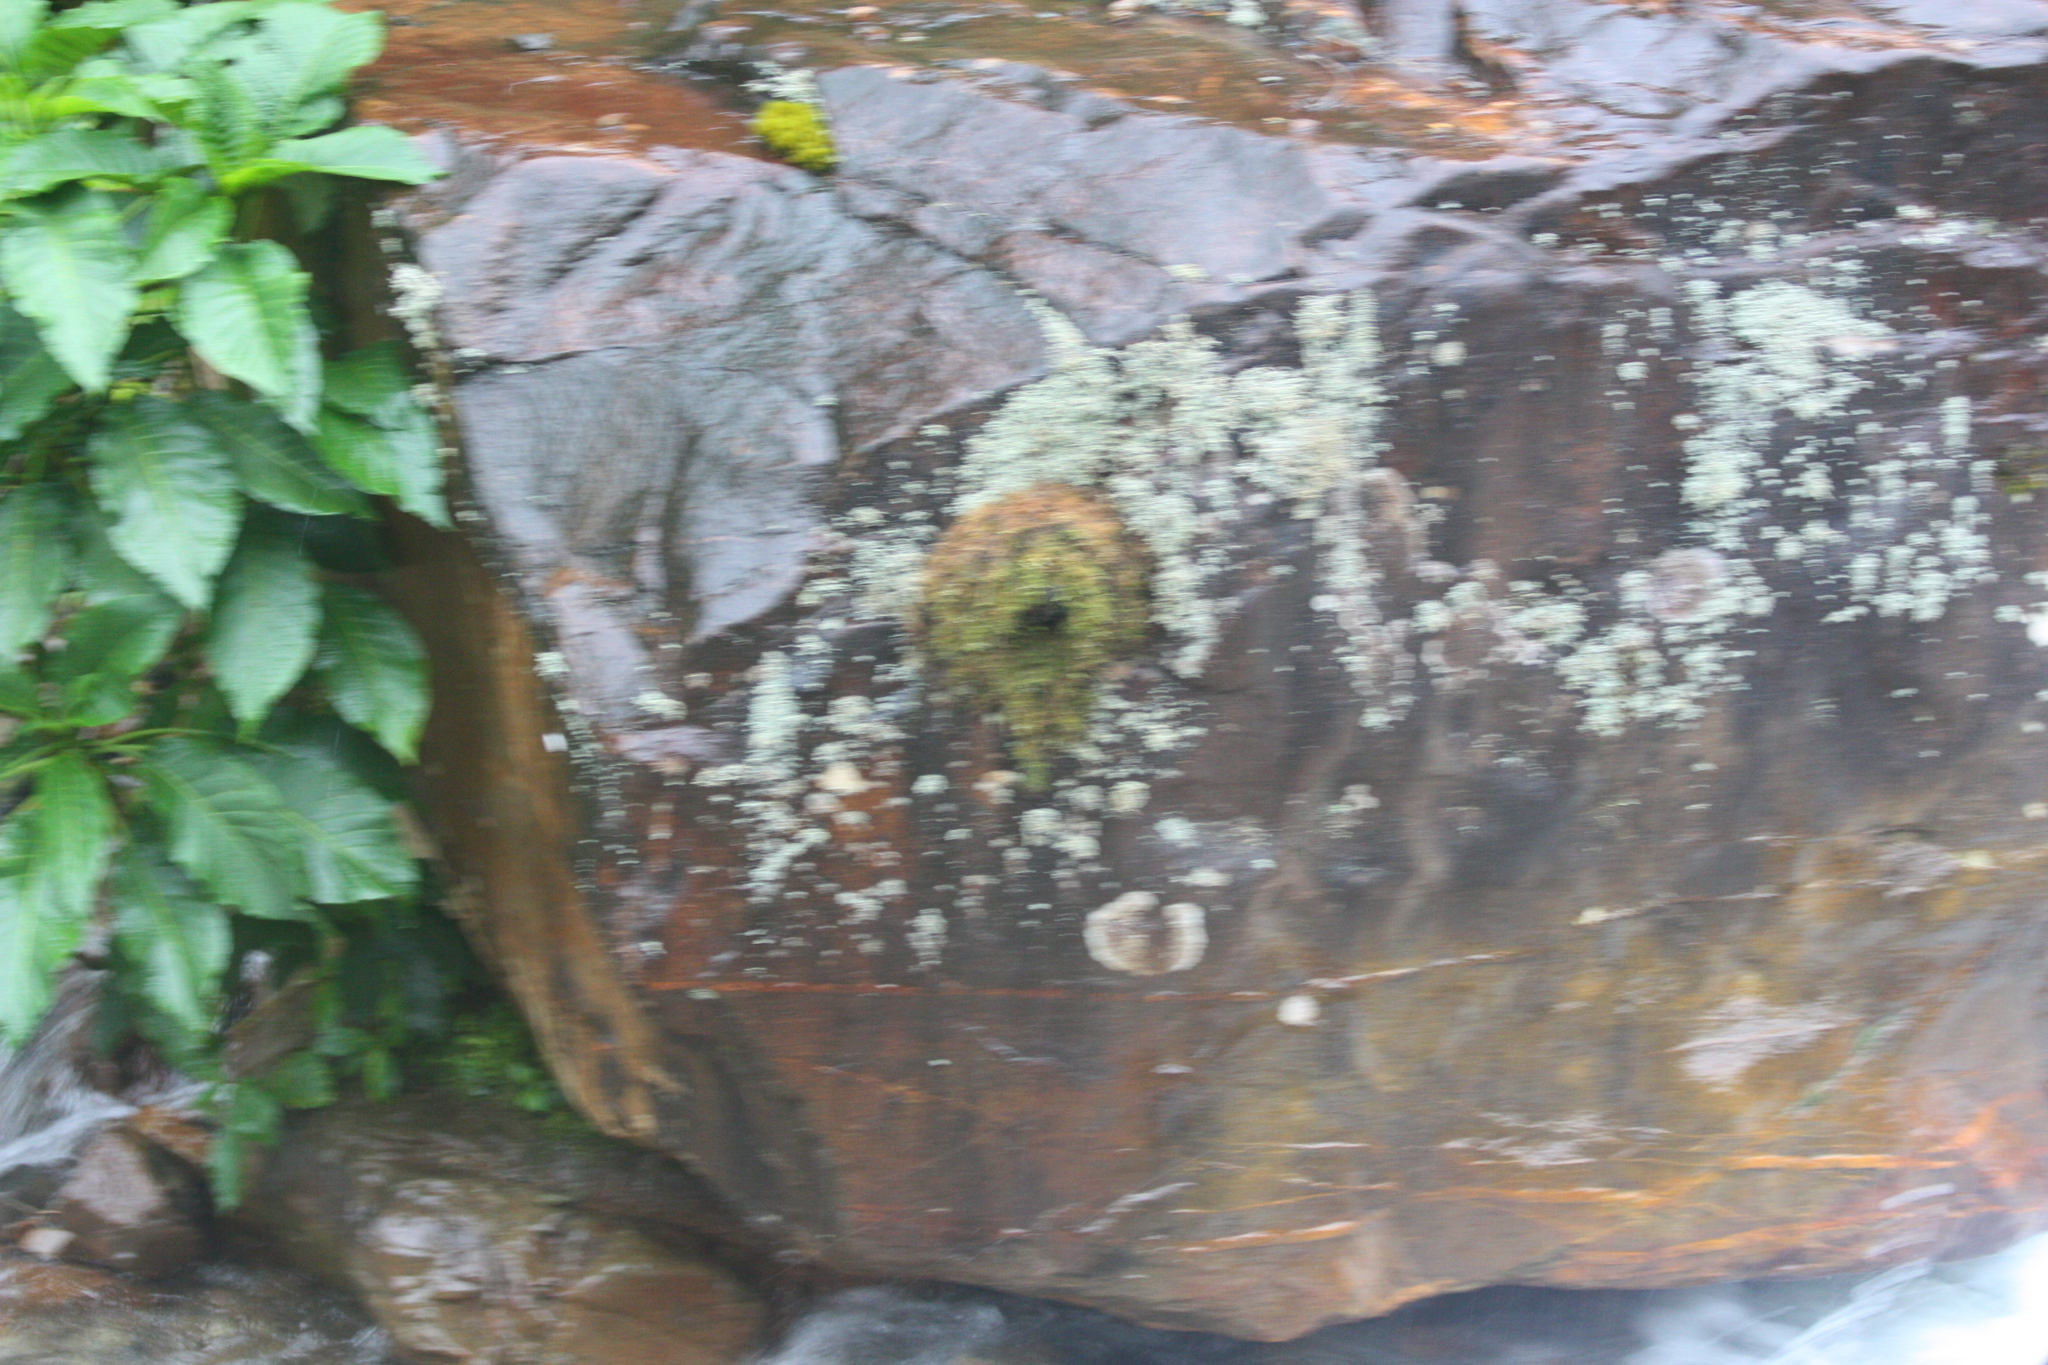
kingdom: Animalia
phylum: Chordata
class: Aves
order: Passeriformes
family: Cinclidae
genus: Cinclus
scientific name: Cinclus leucocephalus
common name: White-capped dipper
